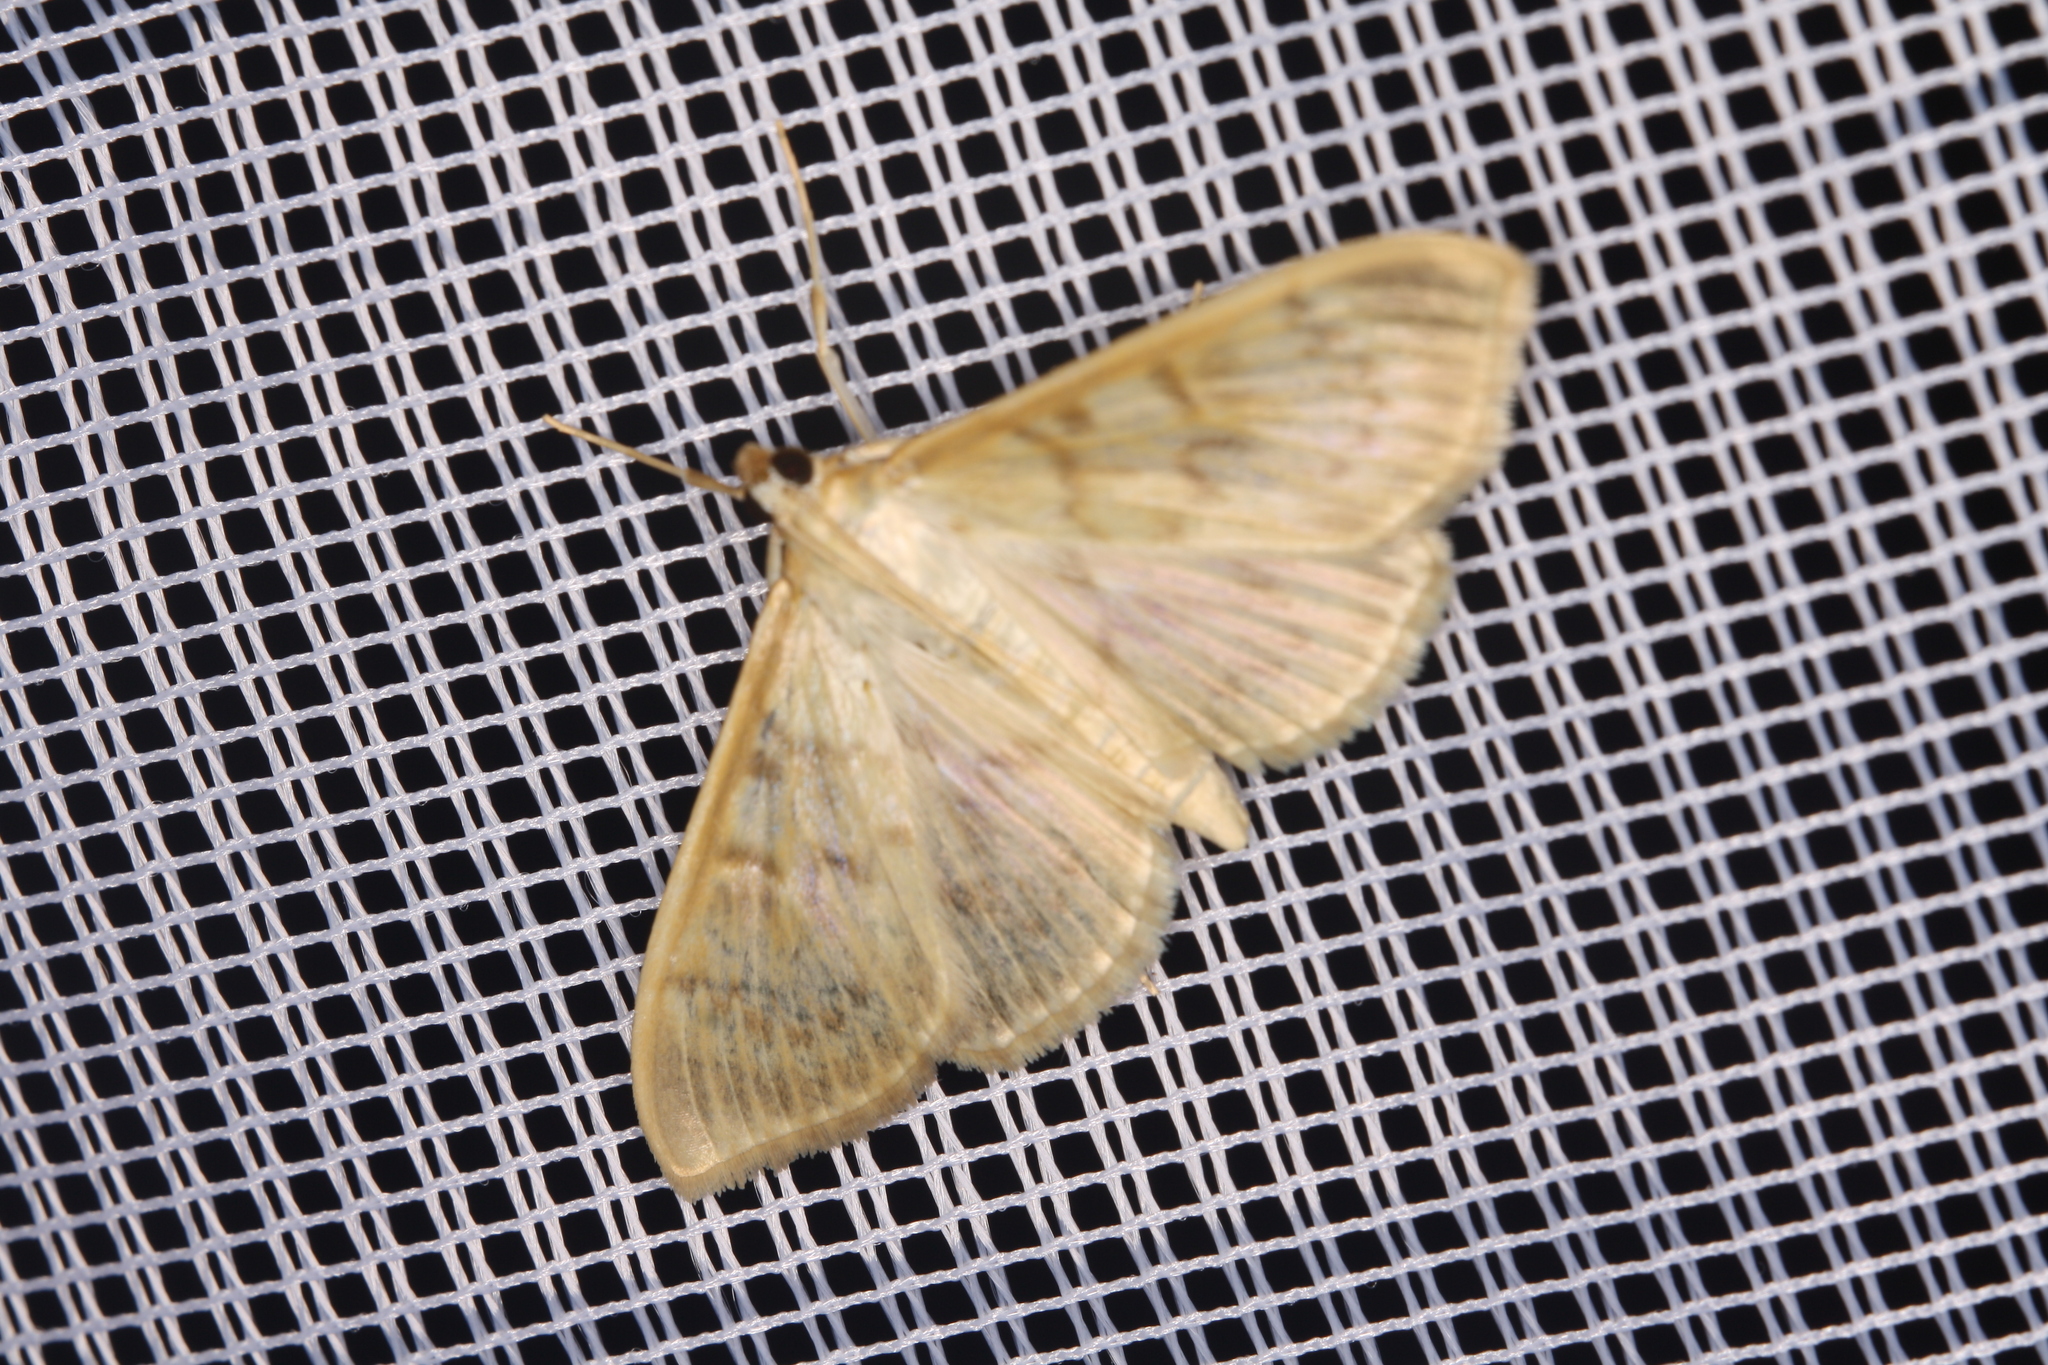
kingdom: Animalia
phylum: Arthropoda
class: Insecta
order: Lepidoptera
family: Crambidae
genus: Patania
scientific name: Patania ruralis
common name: Mother of pearl
